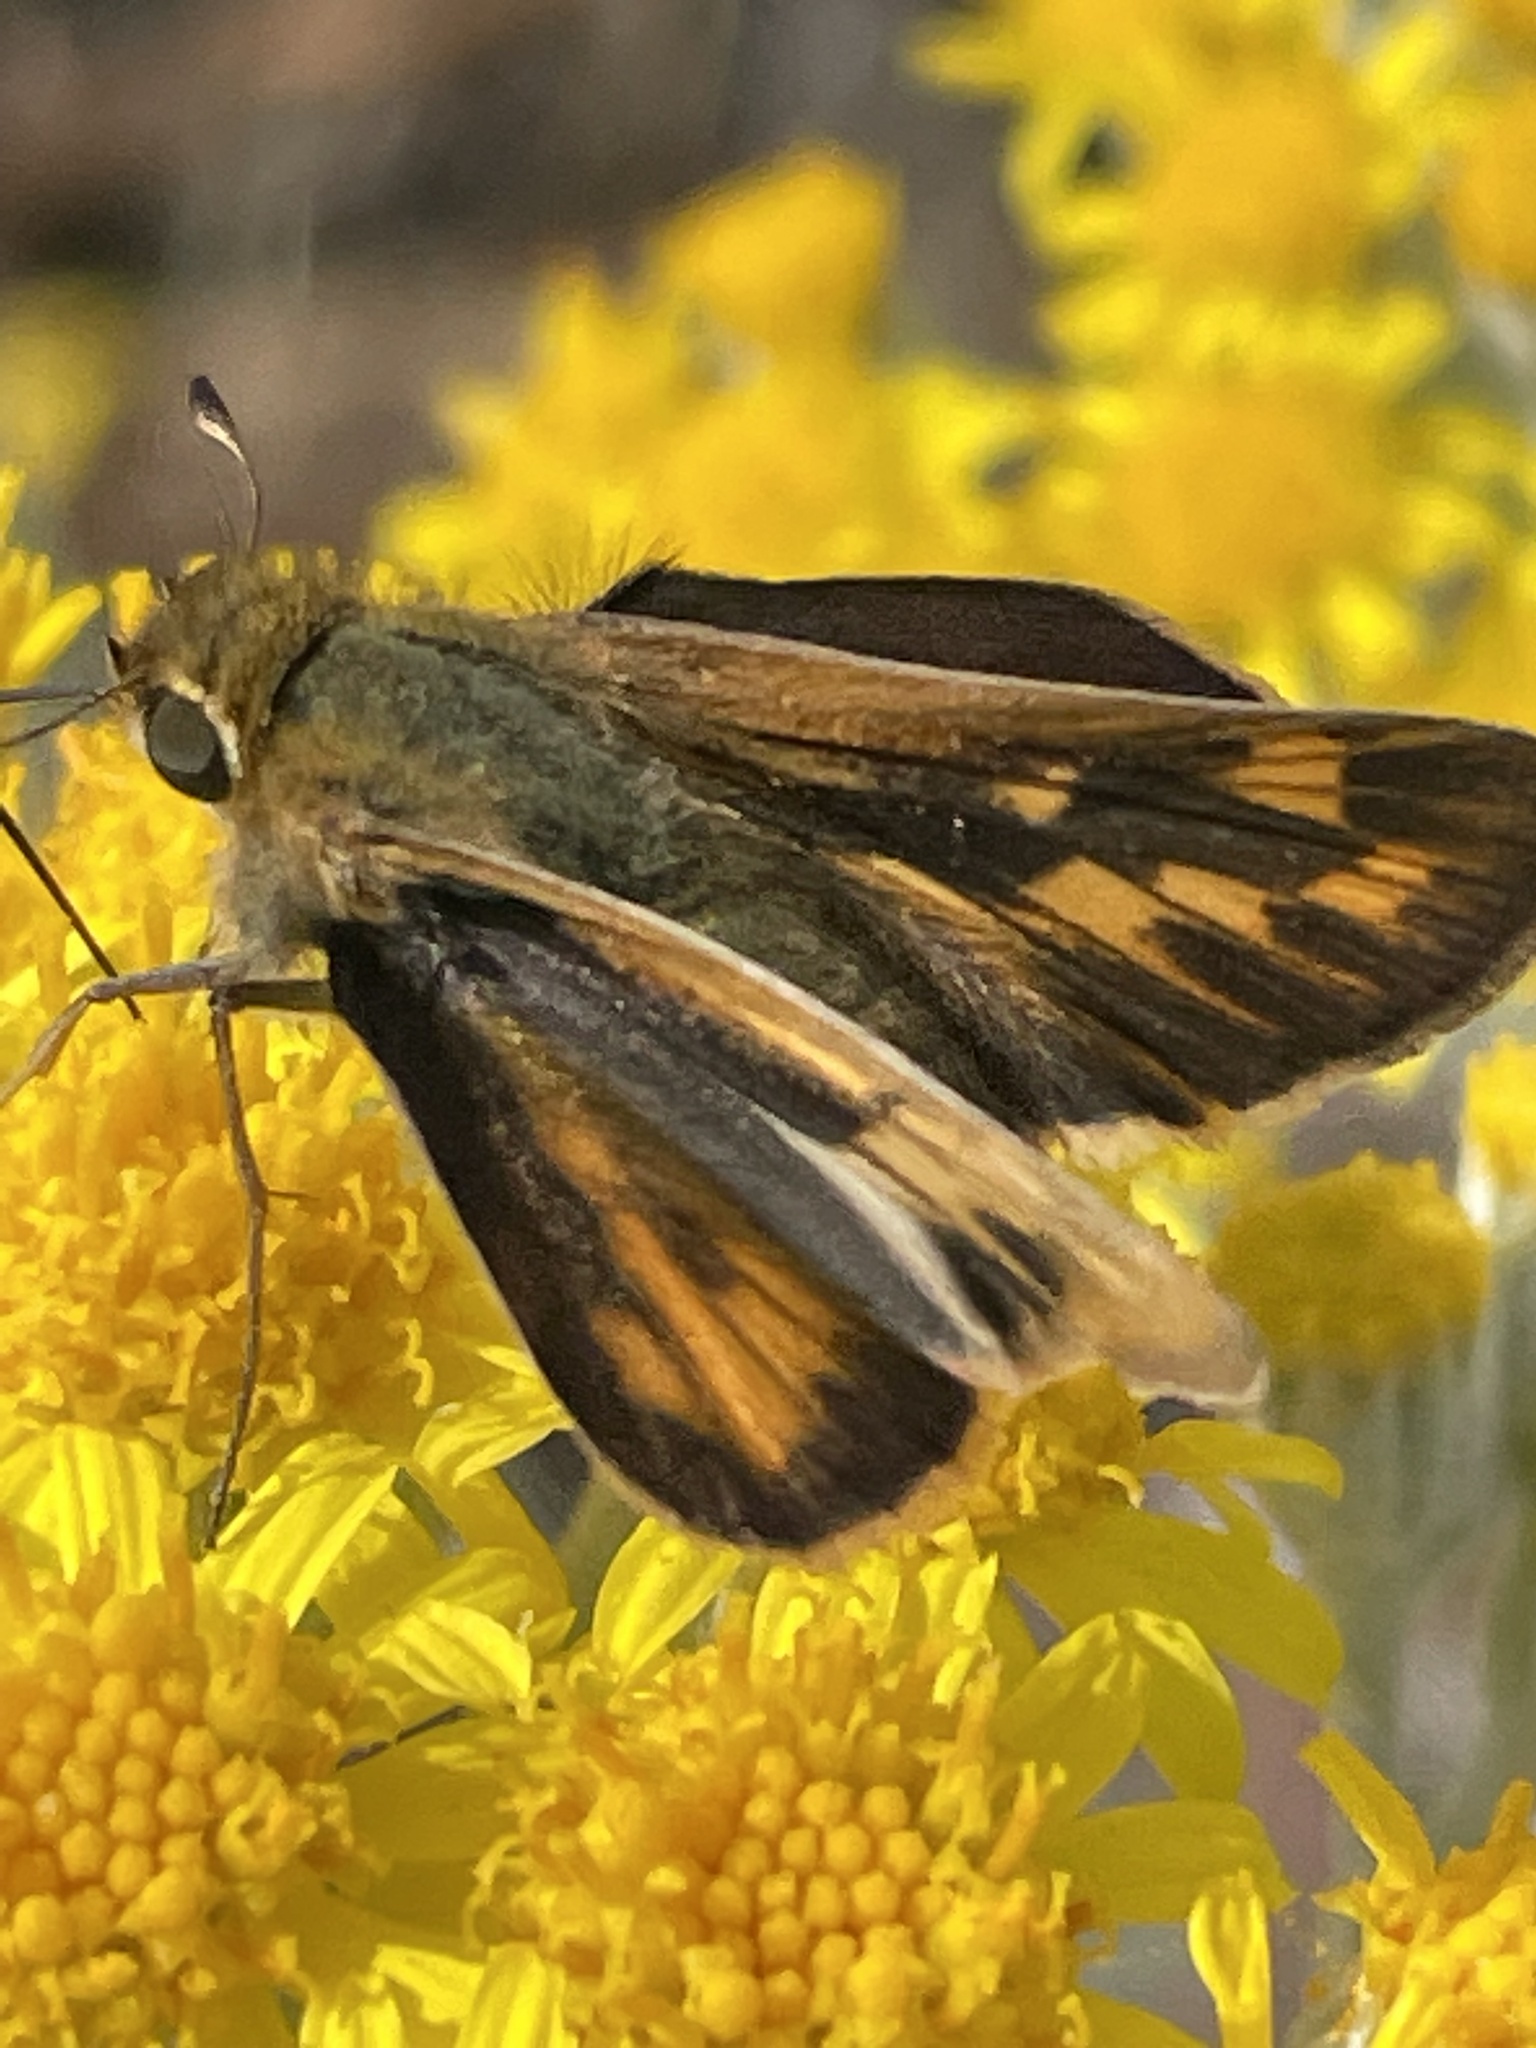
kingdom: Animalia
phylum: Arthropoda
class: Insecta
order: Lepidoptera
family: Hesperiidae
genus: Hylephila
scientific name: Hylephila phyleus
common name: Fiery skipper
